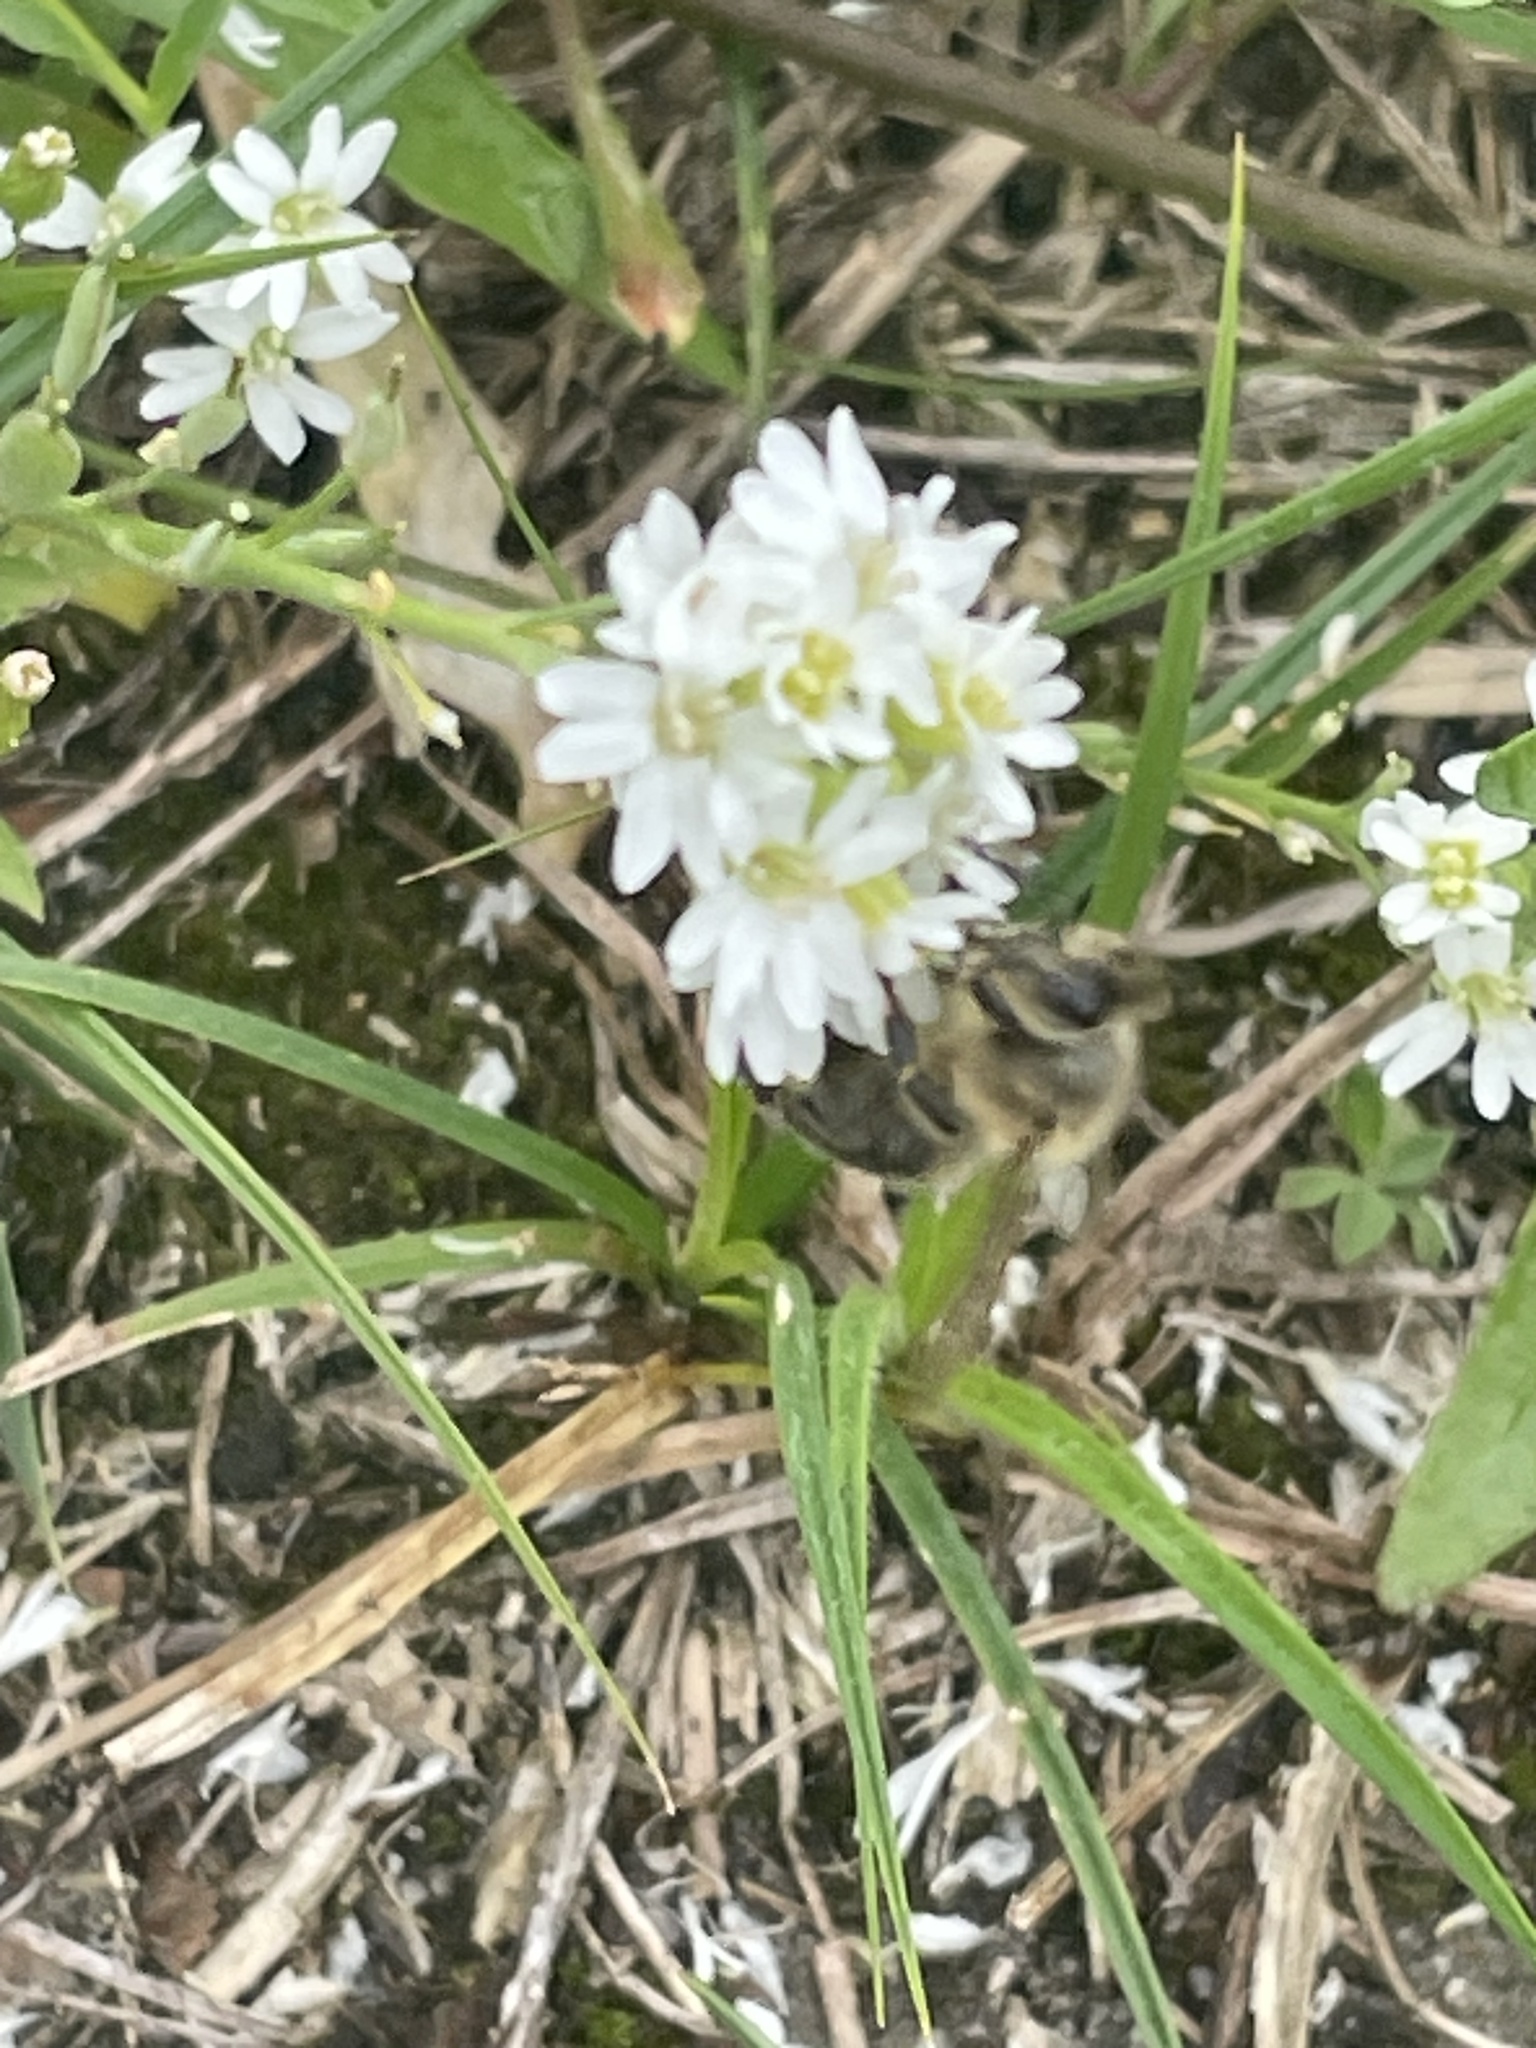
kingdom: Animalia
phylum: Arthropoda
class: Insecta
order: Hymenoptera
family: Apidae
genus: Apis
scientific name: Apis mellifera
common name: Honey bee
